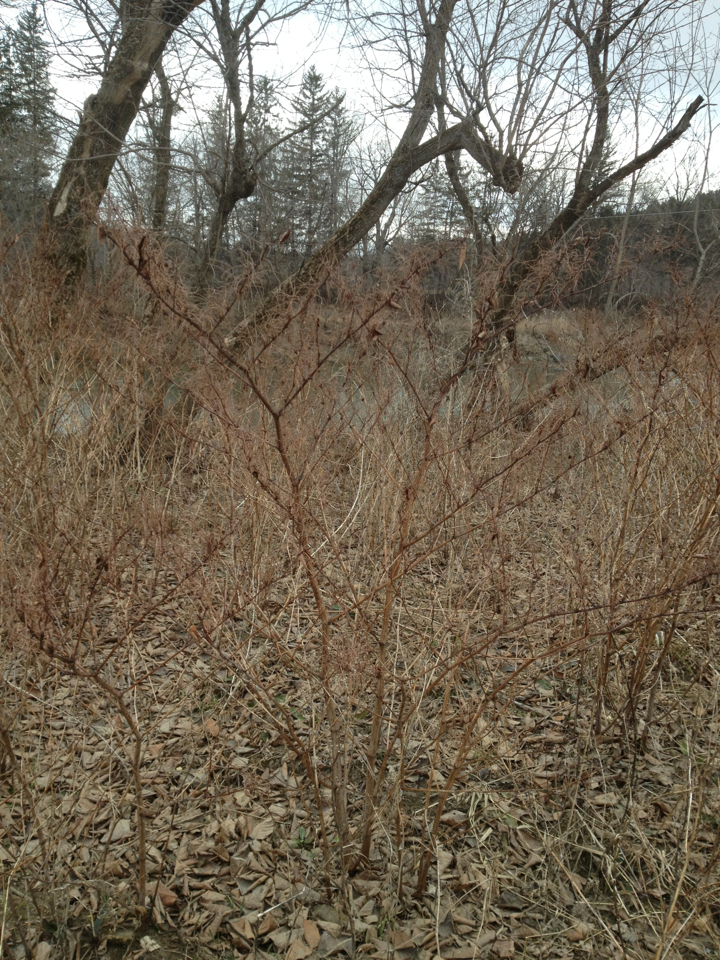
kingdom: Plantae
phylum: Tracheophyta
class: Magnoliopsida
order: Caryophyllales
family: Polygonaceae
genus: Reynoutria
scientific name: Reynoutria japonica
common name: Japanese knotweed
